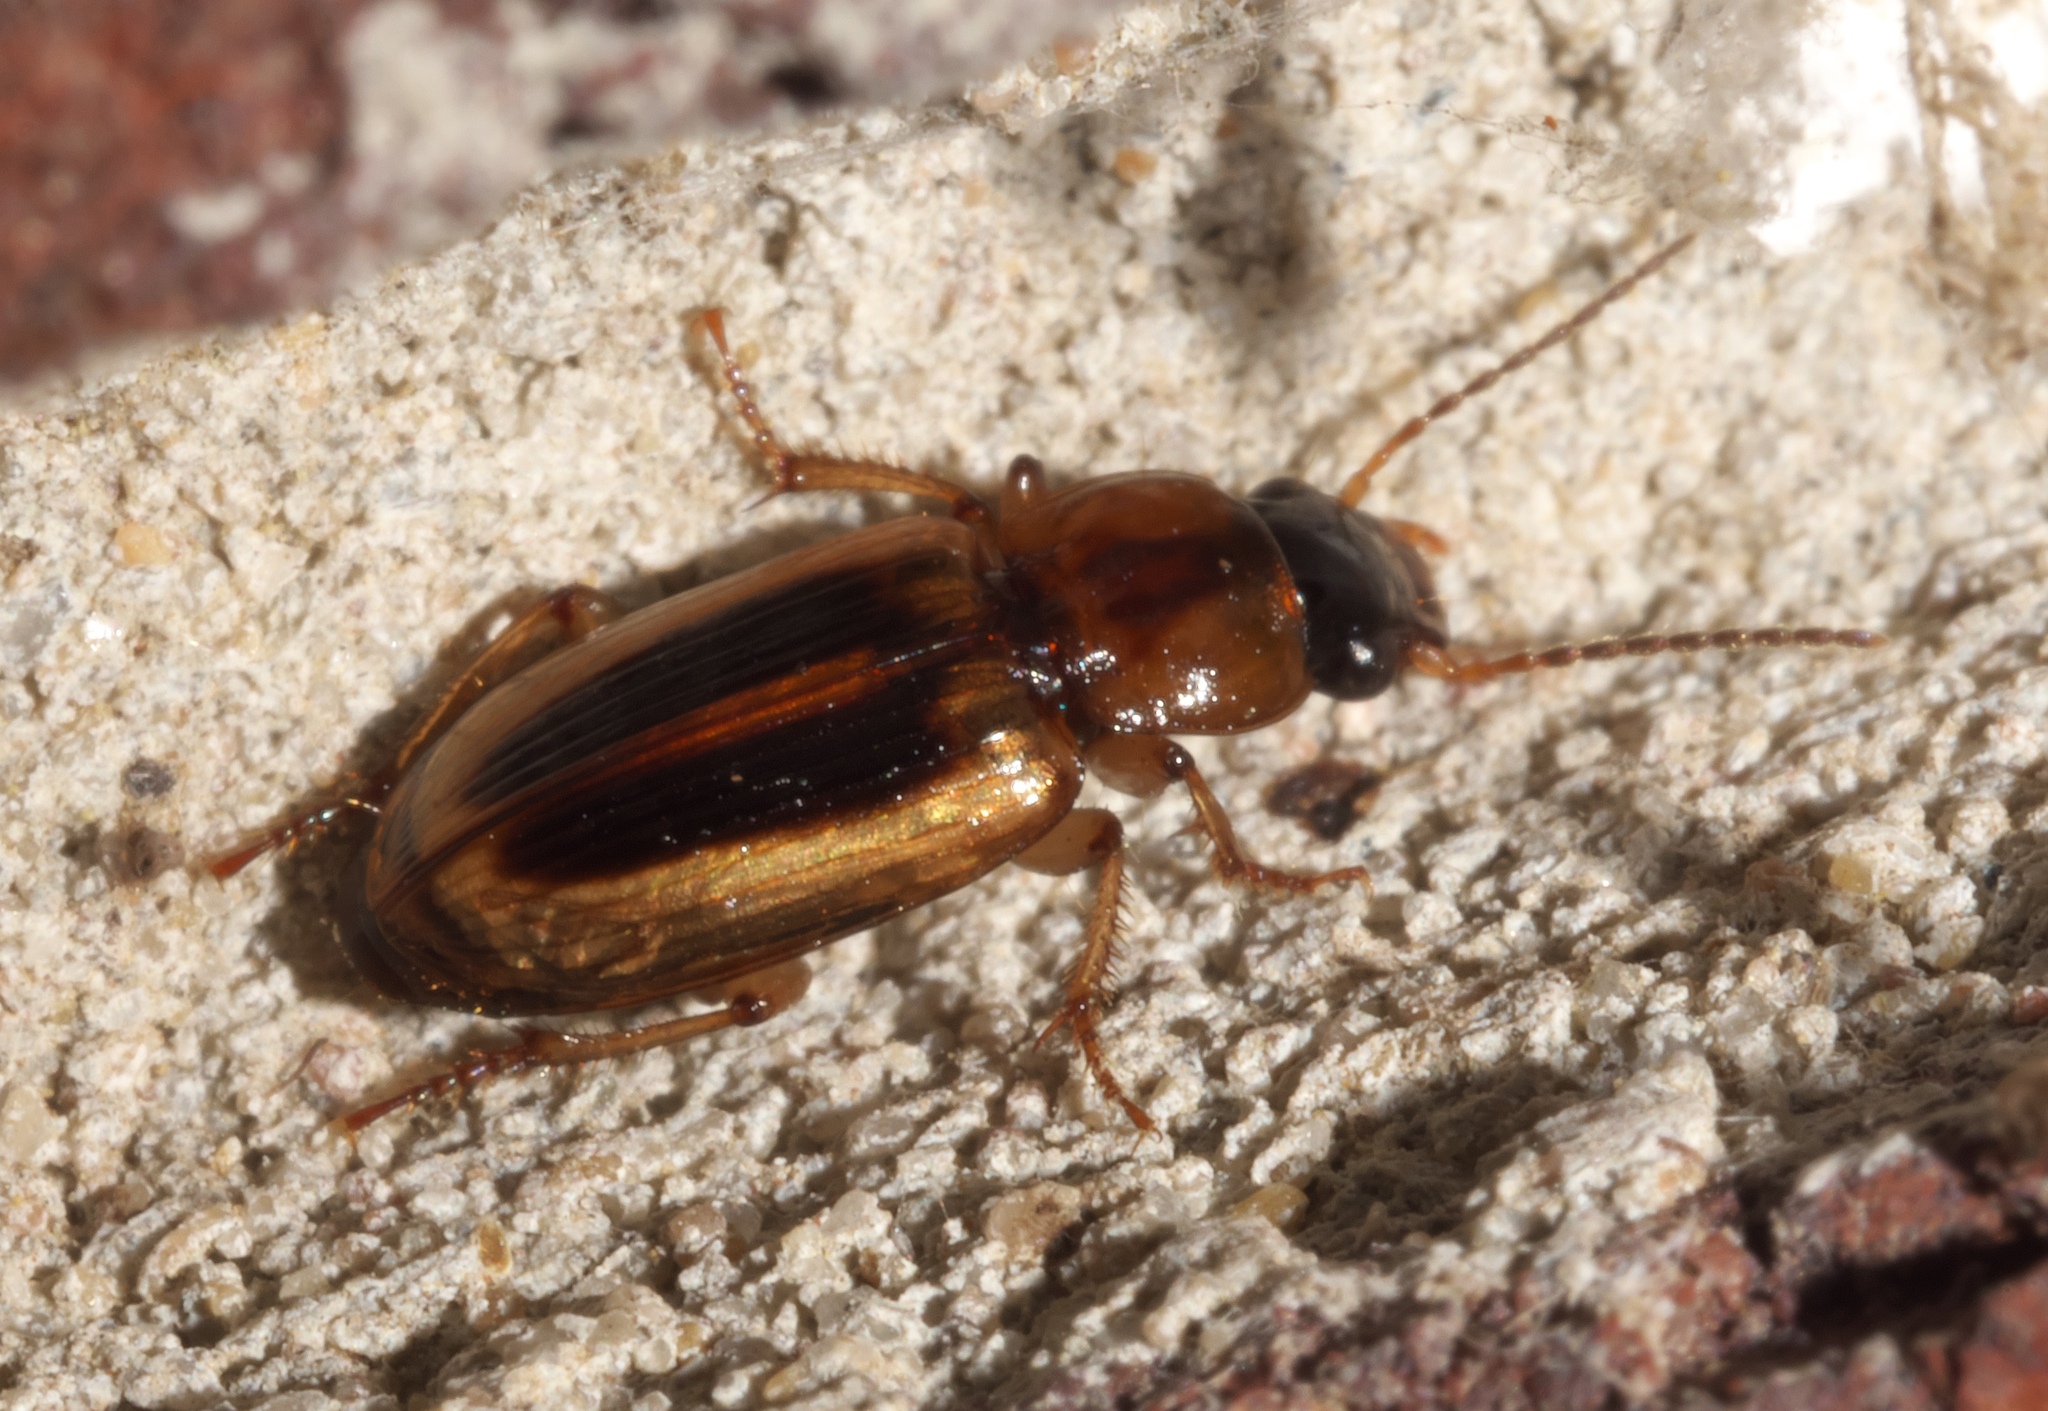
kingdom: Animalia
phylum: Arthropoda
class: Insecta
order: Coleoptera
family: Carabidae
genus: Stenolophus
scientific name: Stenolophus lecontei
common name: Leconte's seedcorn beetle
